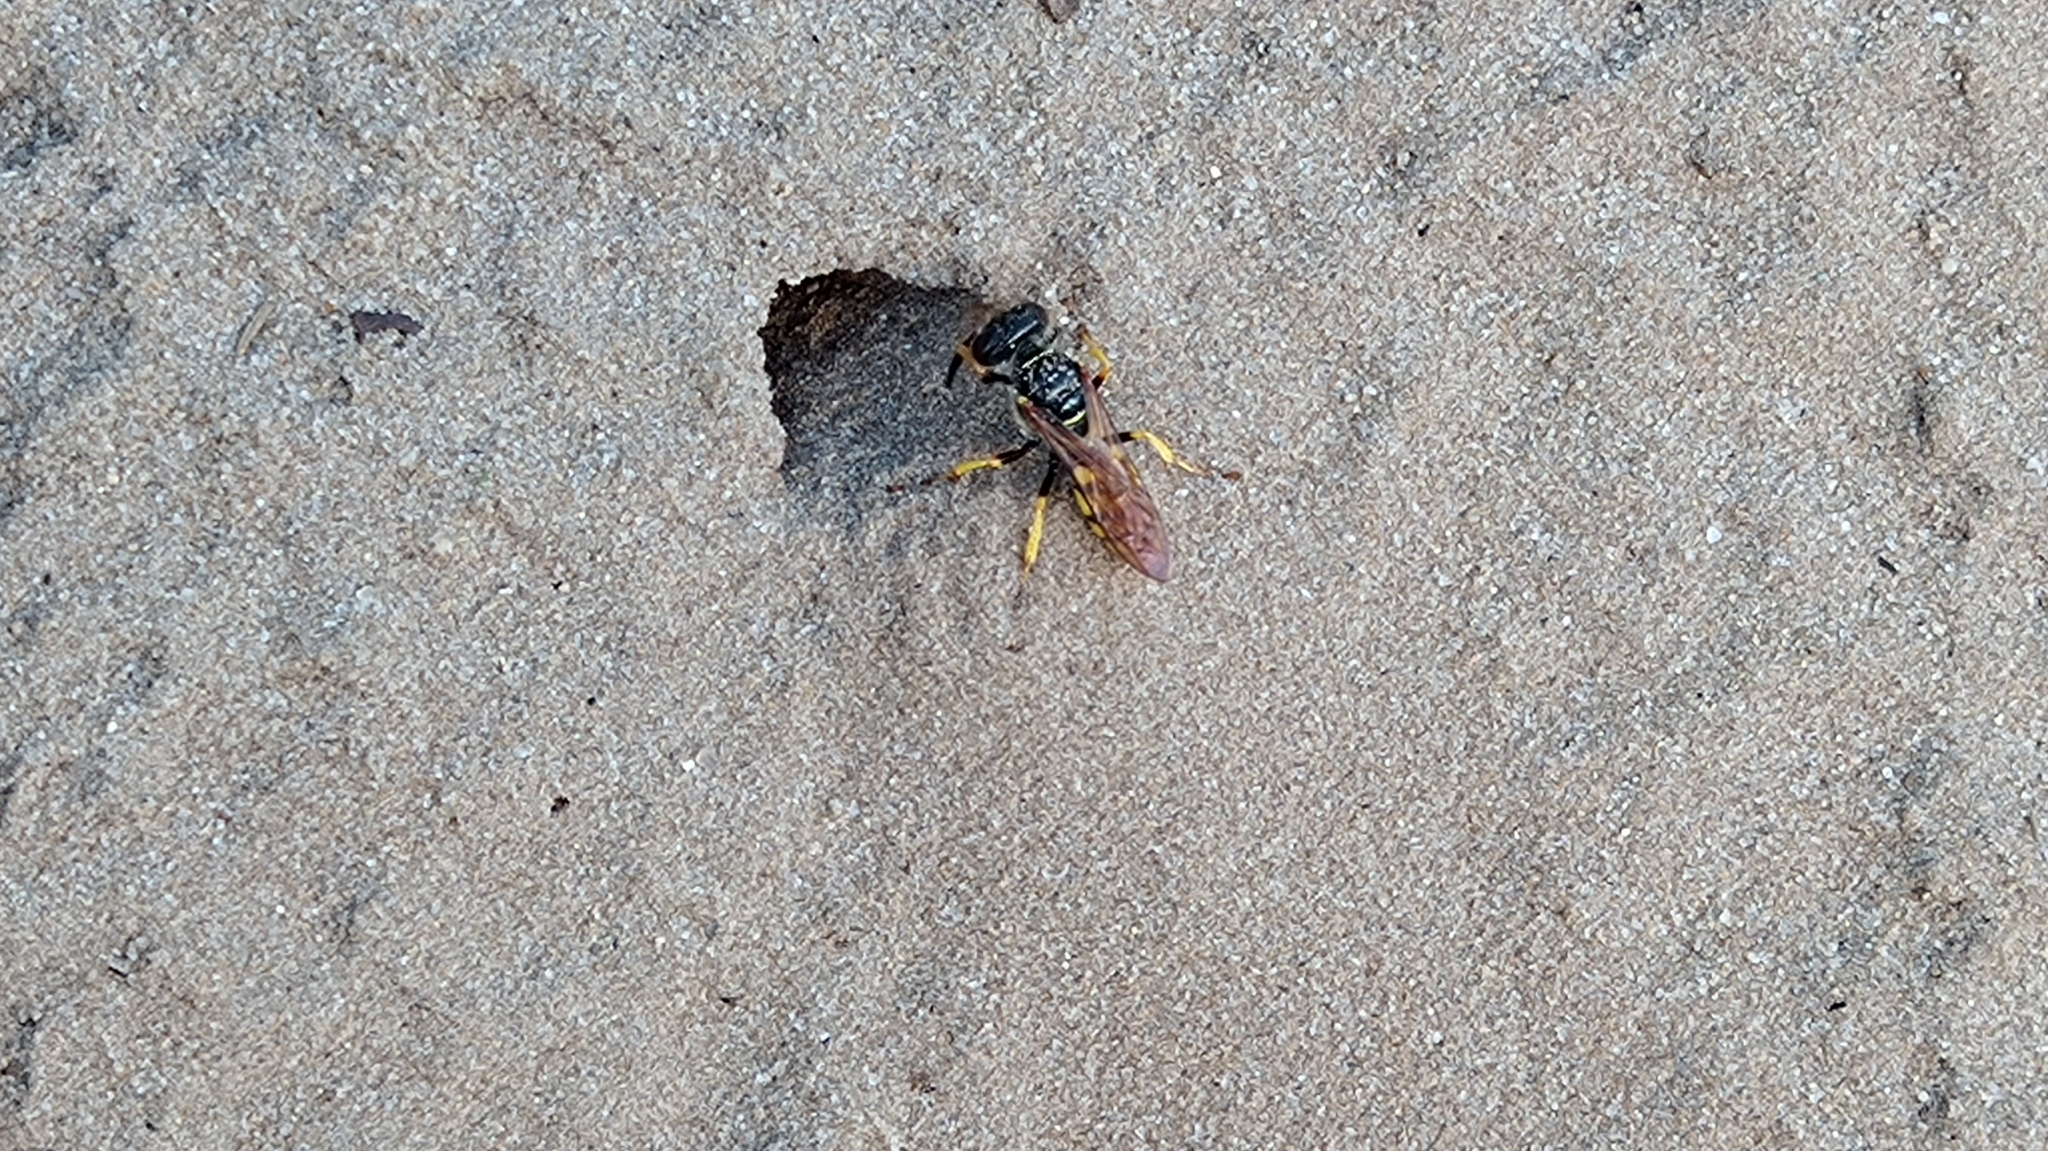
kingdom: Animalia
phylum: Arthropoda
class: Insecta
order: Hymenoptera
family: Crabronidae
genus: Philanthus
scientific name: Philanthus triangulum
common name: Bee wolf
